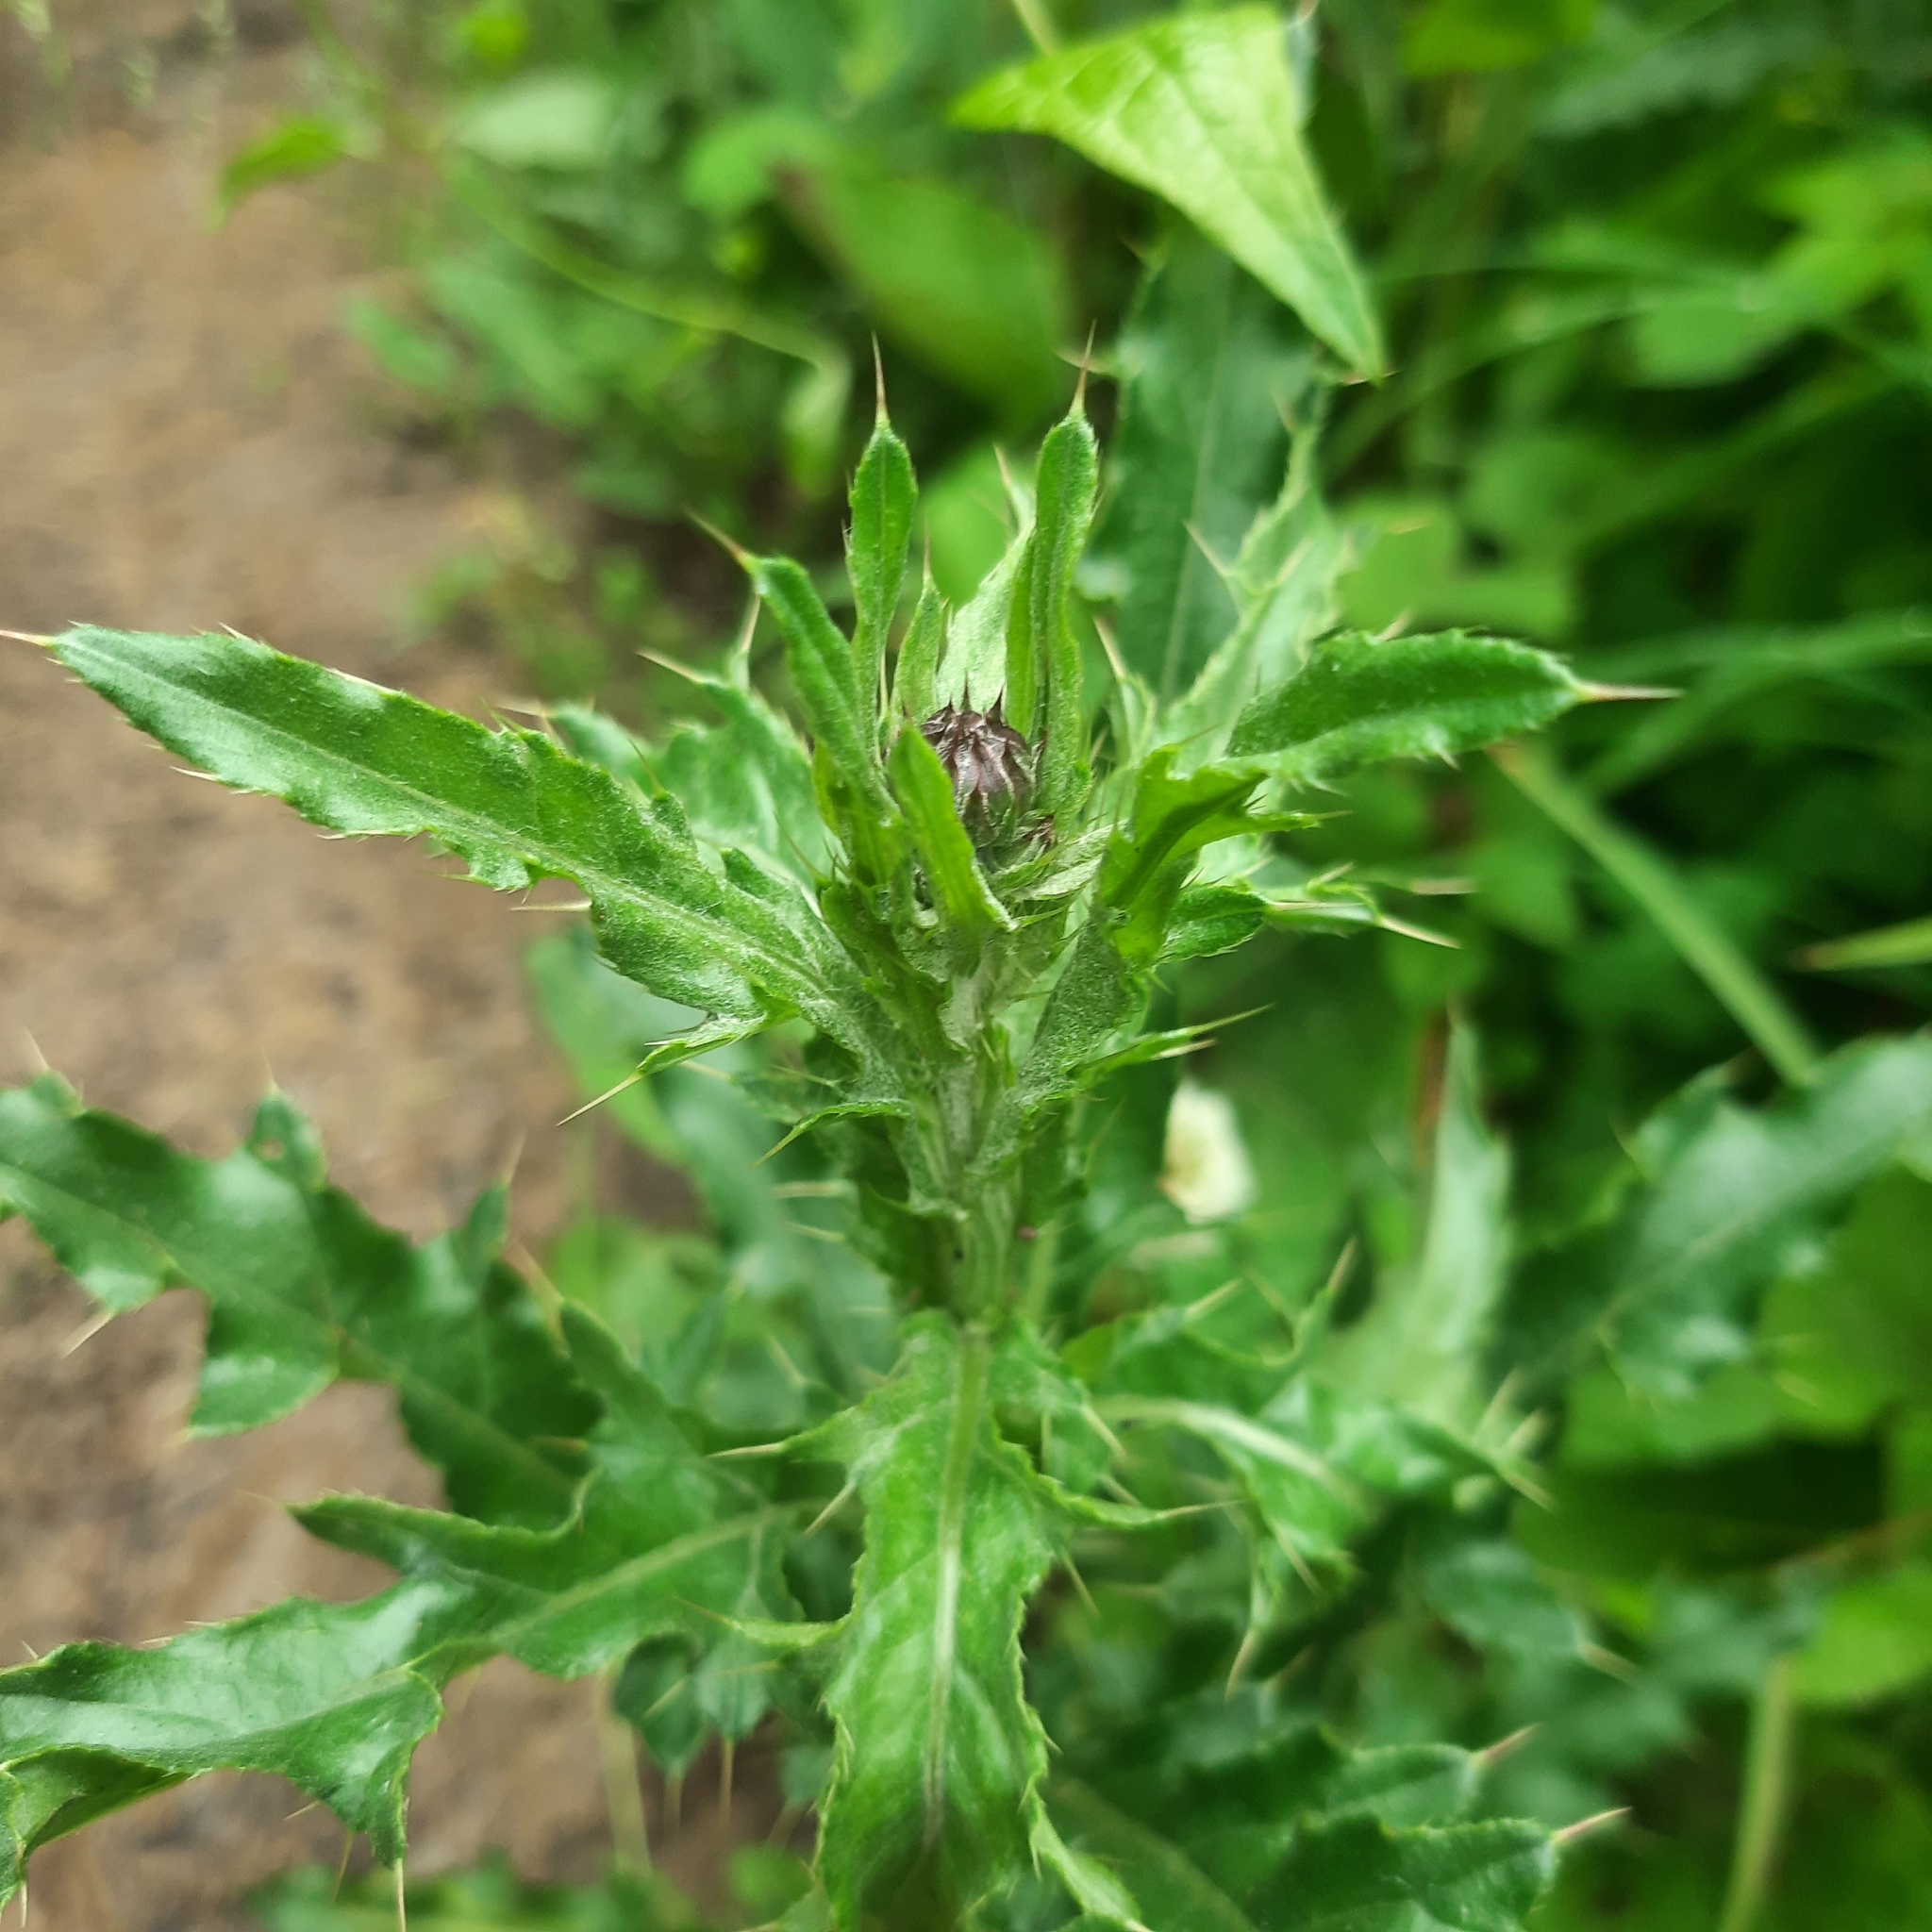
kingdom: Plantae
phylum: Tracheophyta
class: Magnoliopsida
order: Asterales
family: Asteraceae
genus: Cirsium
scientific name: Cirsium arvense
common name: Creeping thistle
